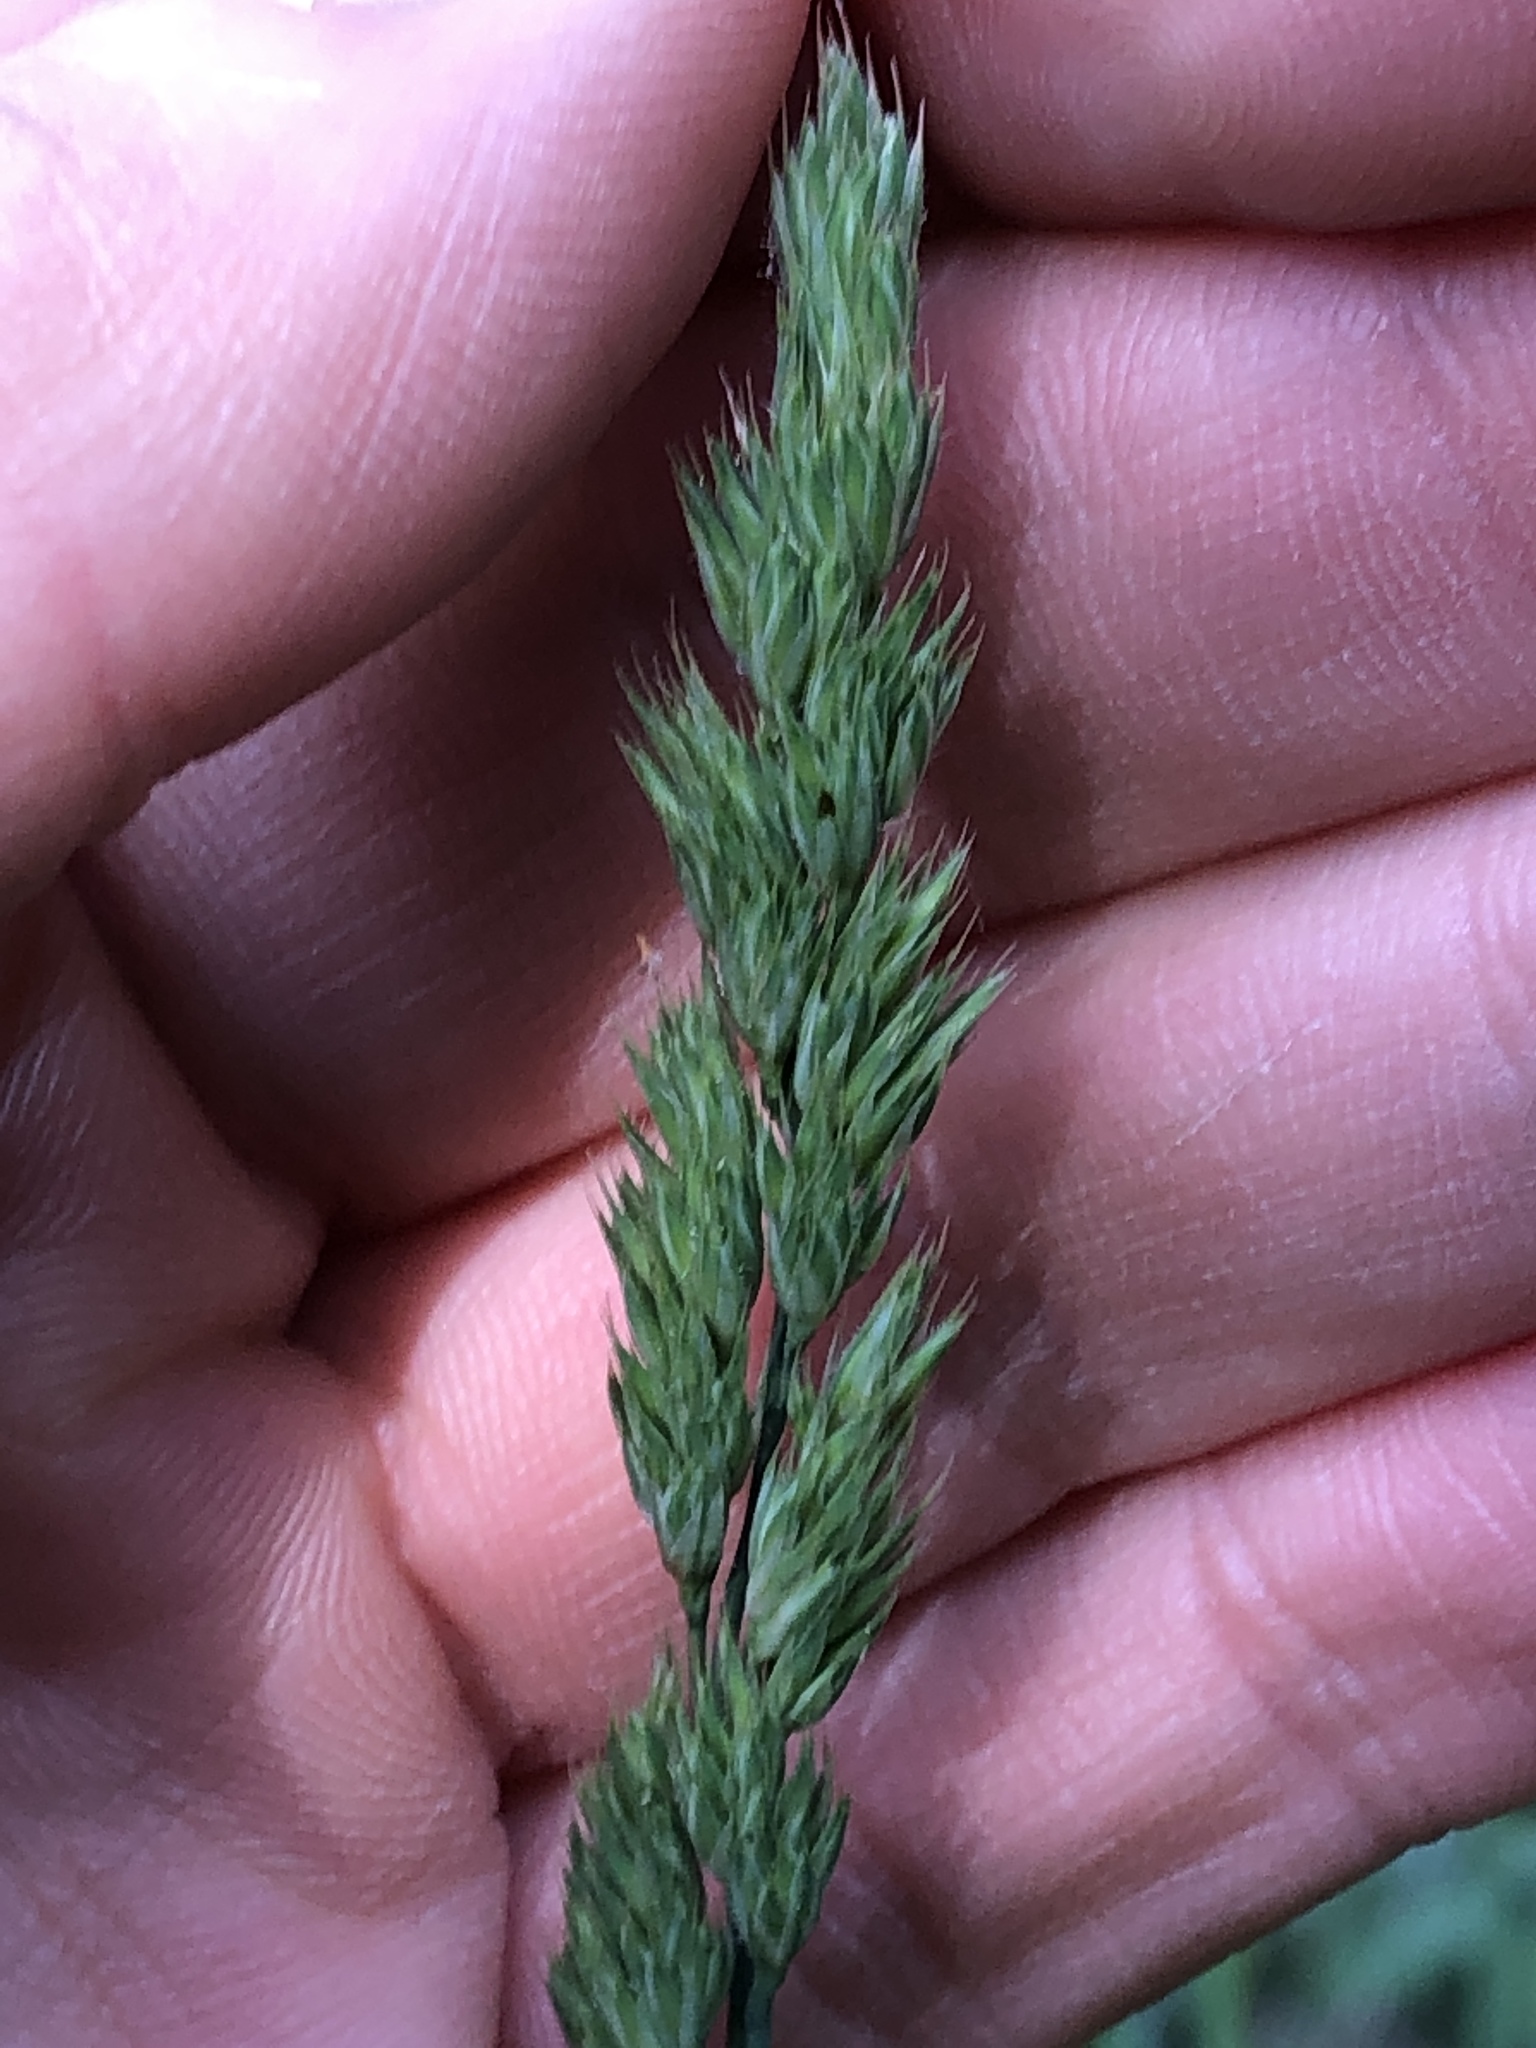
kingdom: Plantae
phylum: Tracheophyta
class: Liliopsida
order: Poales
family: Poaceae
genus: Dactylis
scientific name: Dactylis glomerata
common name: Orchardgrass
